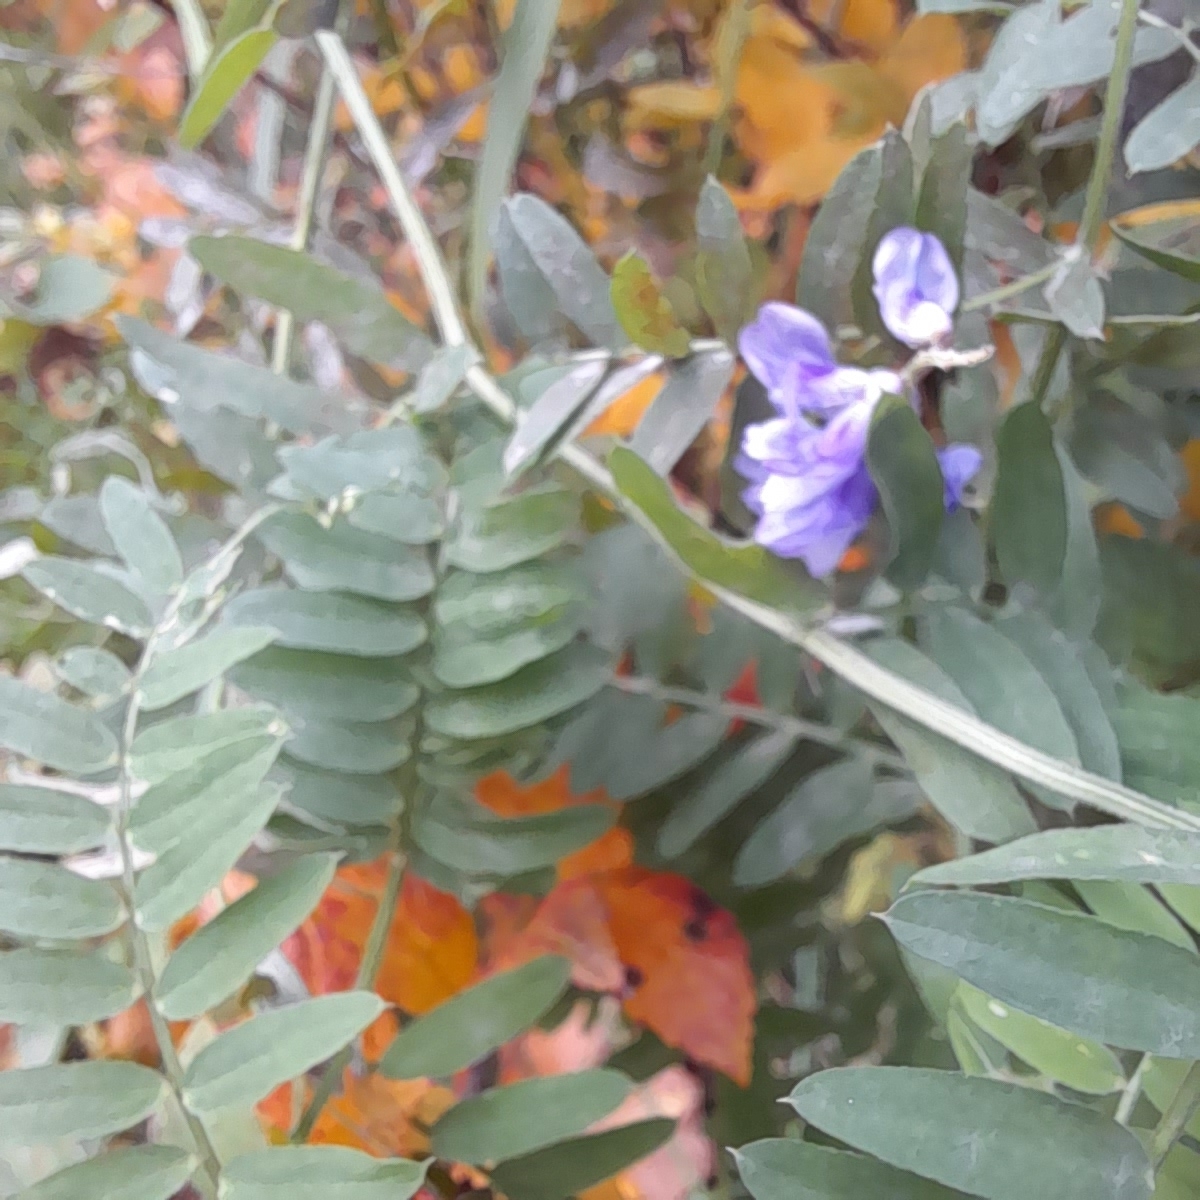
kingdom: Plantae
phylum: Tracheophyta
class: Magnoliopsida
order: Fabales
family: Fabaceae
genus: Vicia
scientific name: Vicia cracca
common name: Bird vetch
